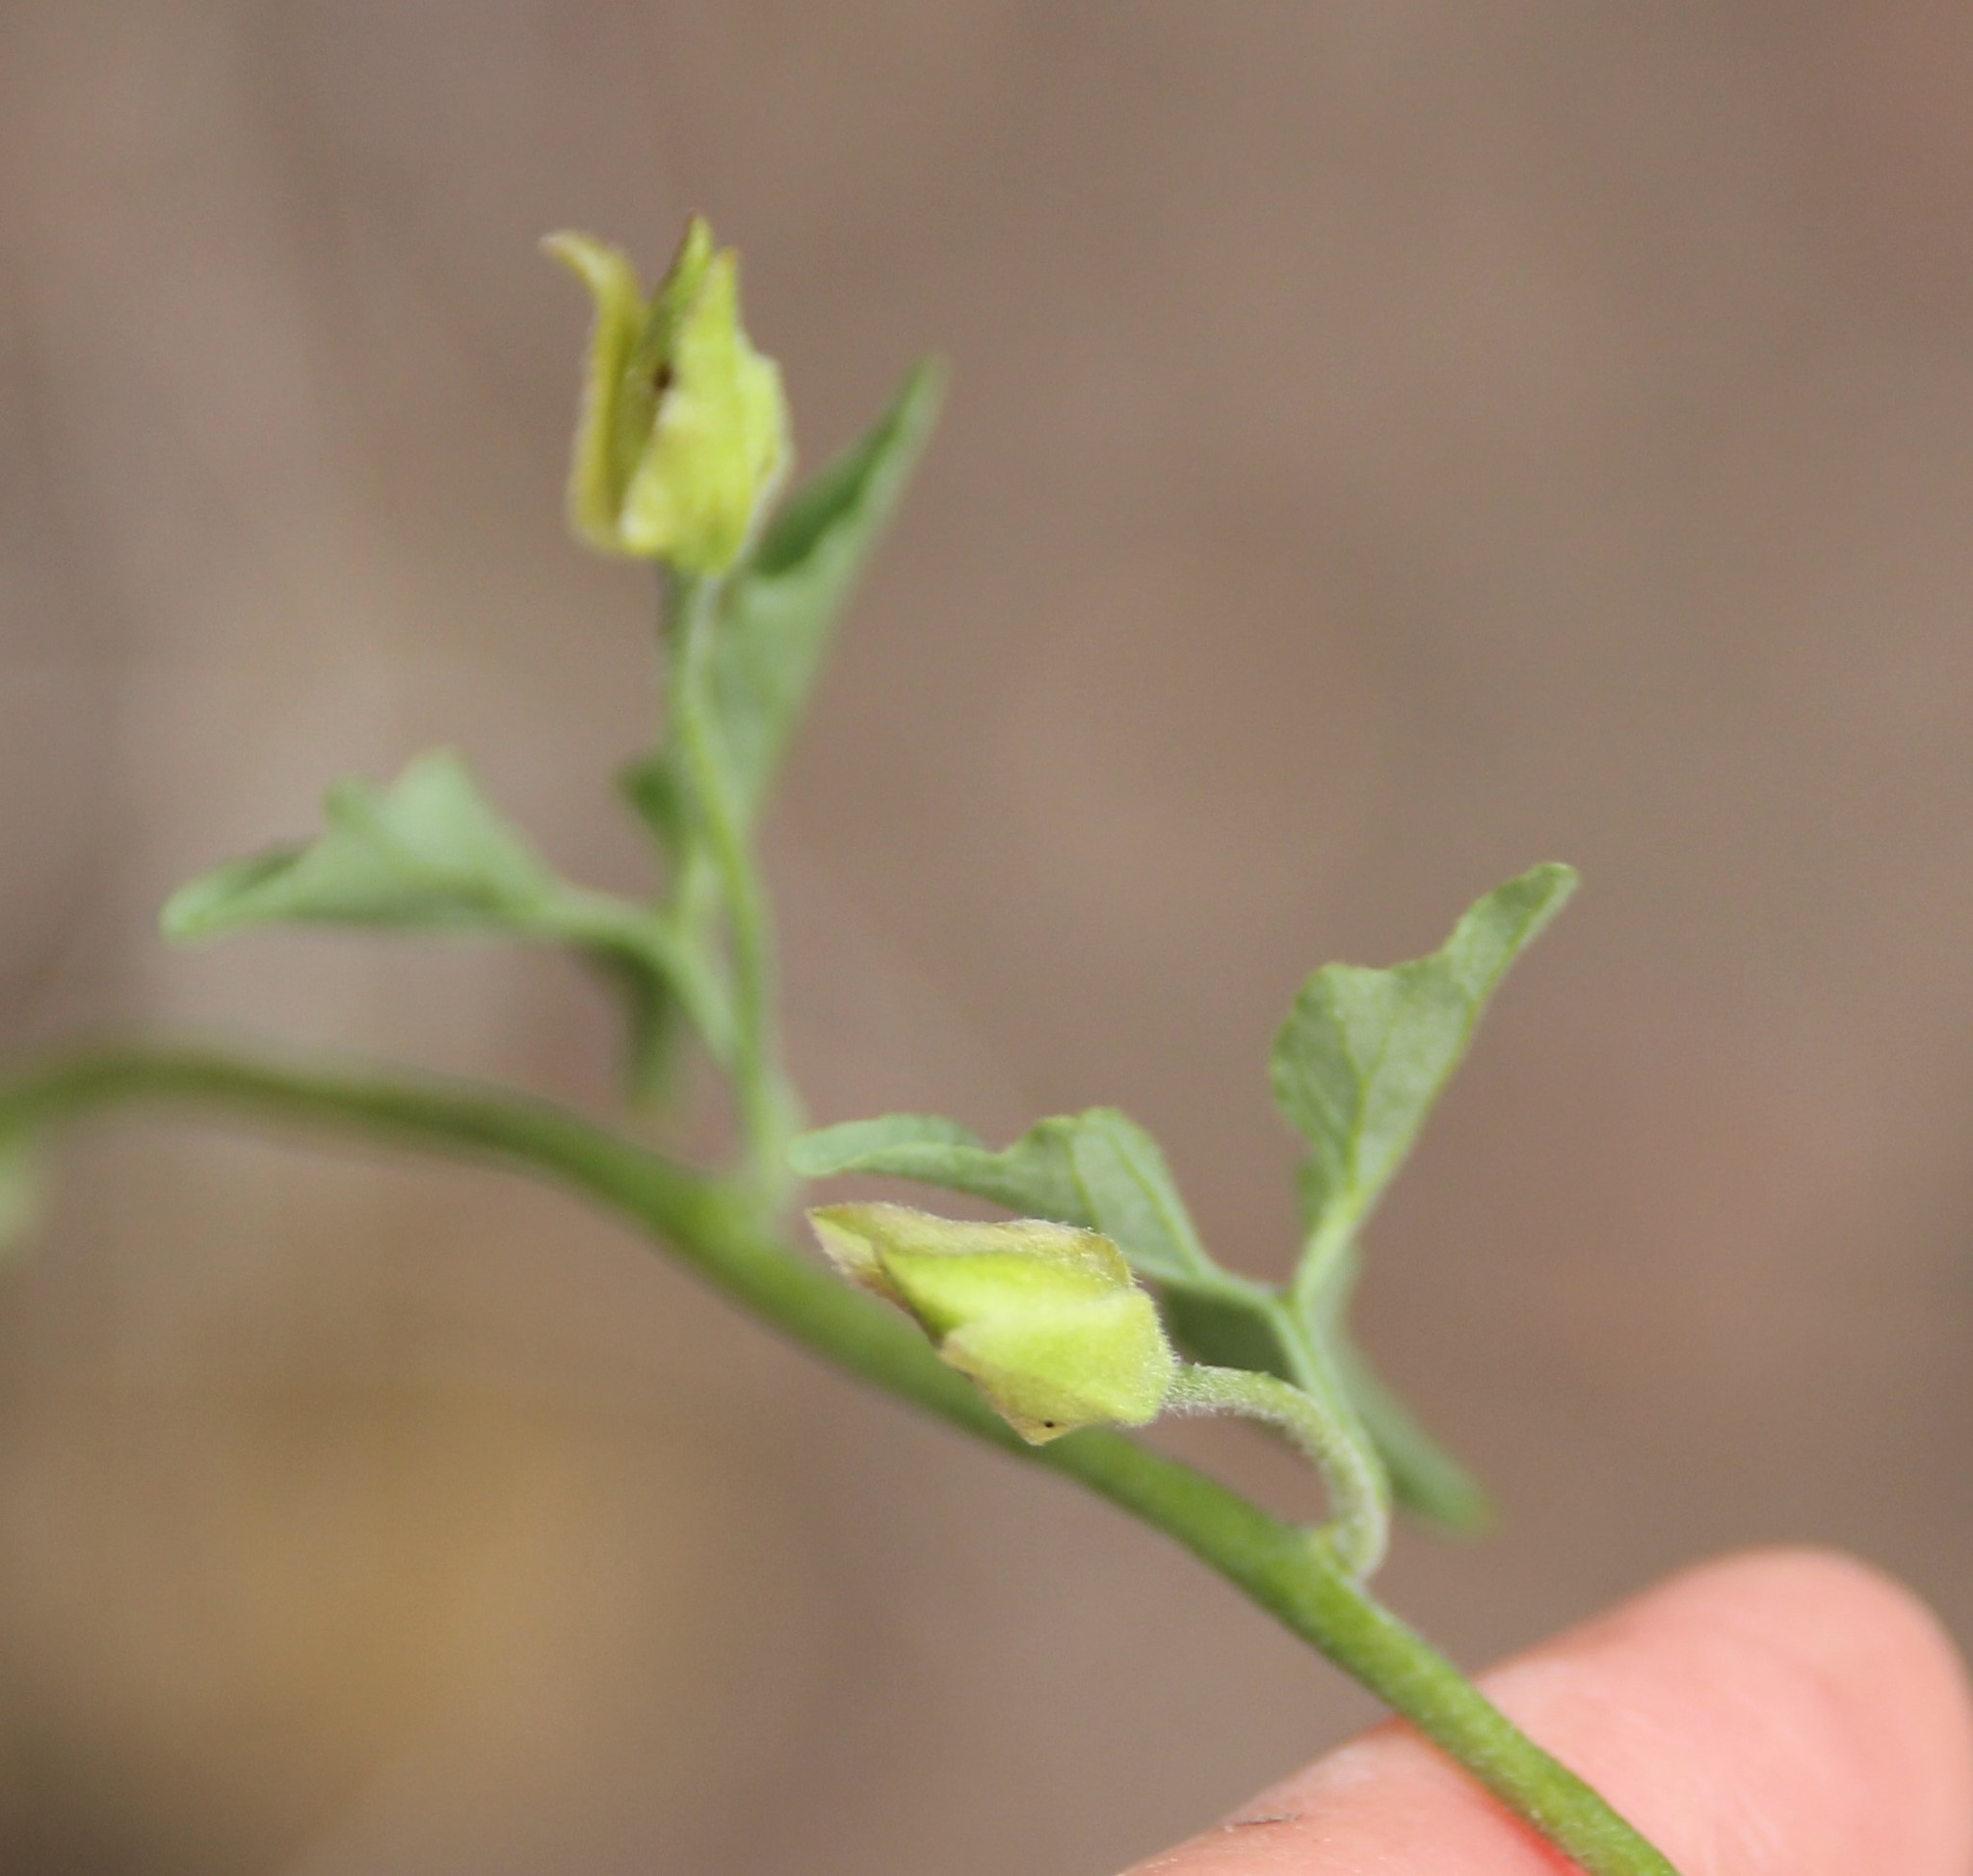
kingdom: Plantae
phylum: Tracheophyta
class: Magnoliopsida
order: Solanales
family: Convolvulaceae
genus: Calystegia
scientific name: Calystegia macrostegia
